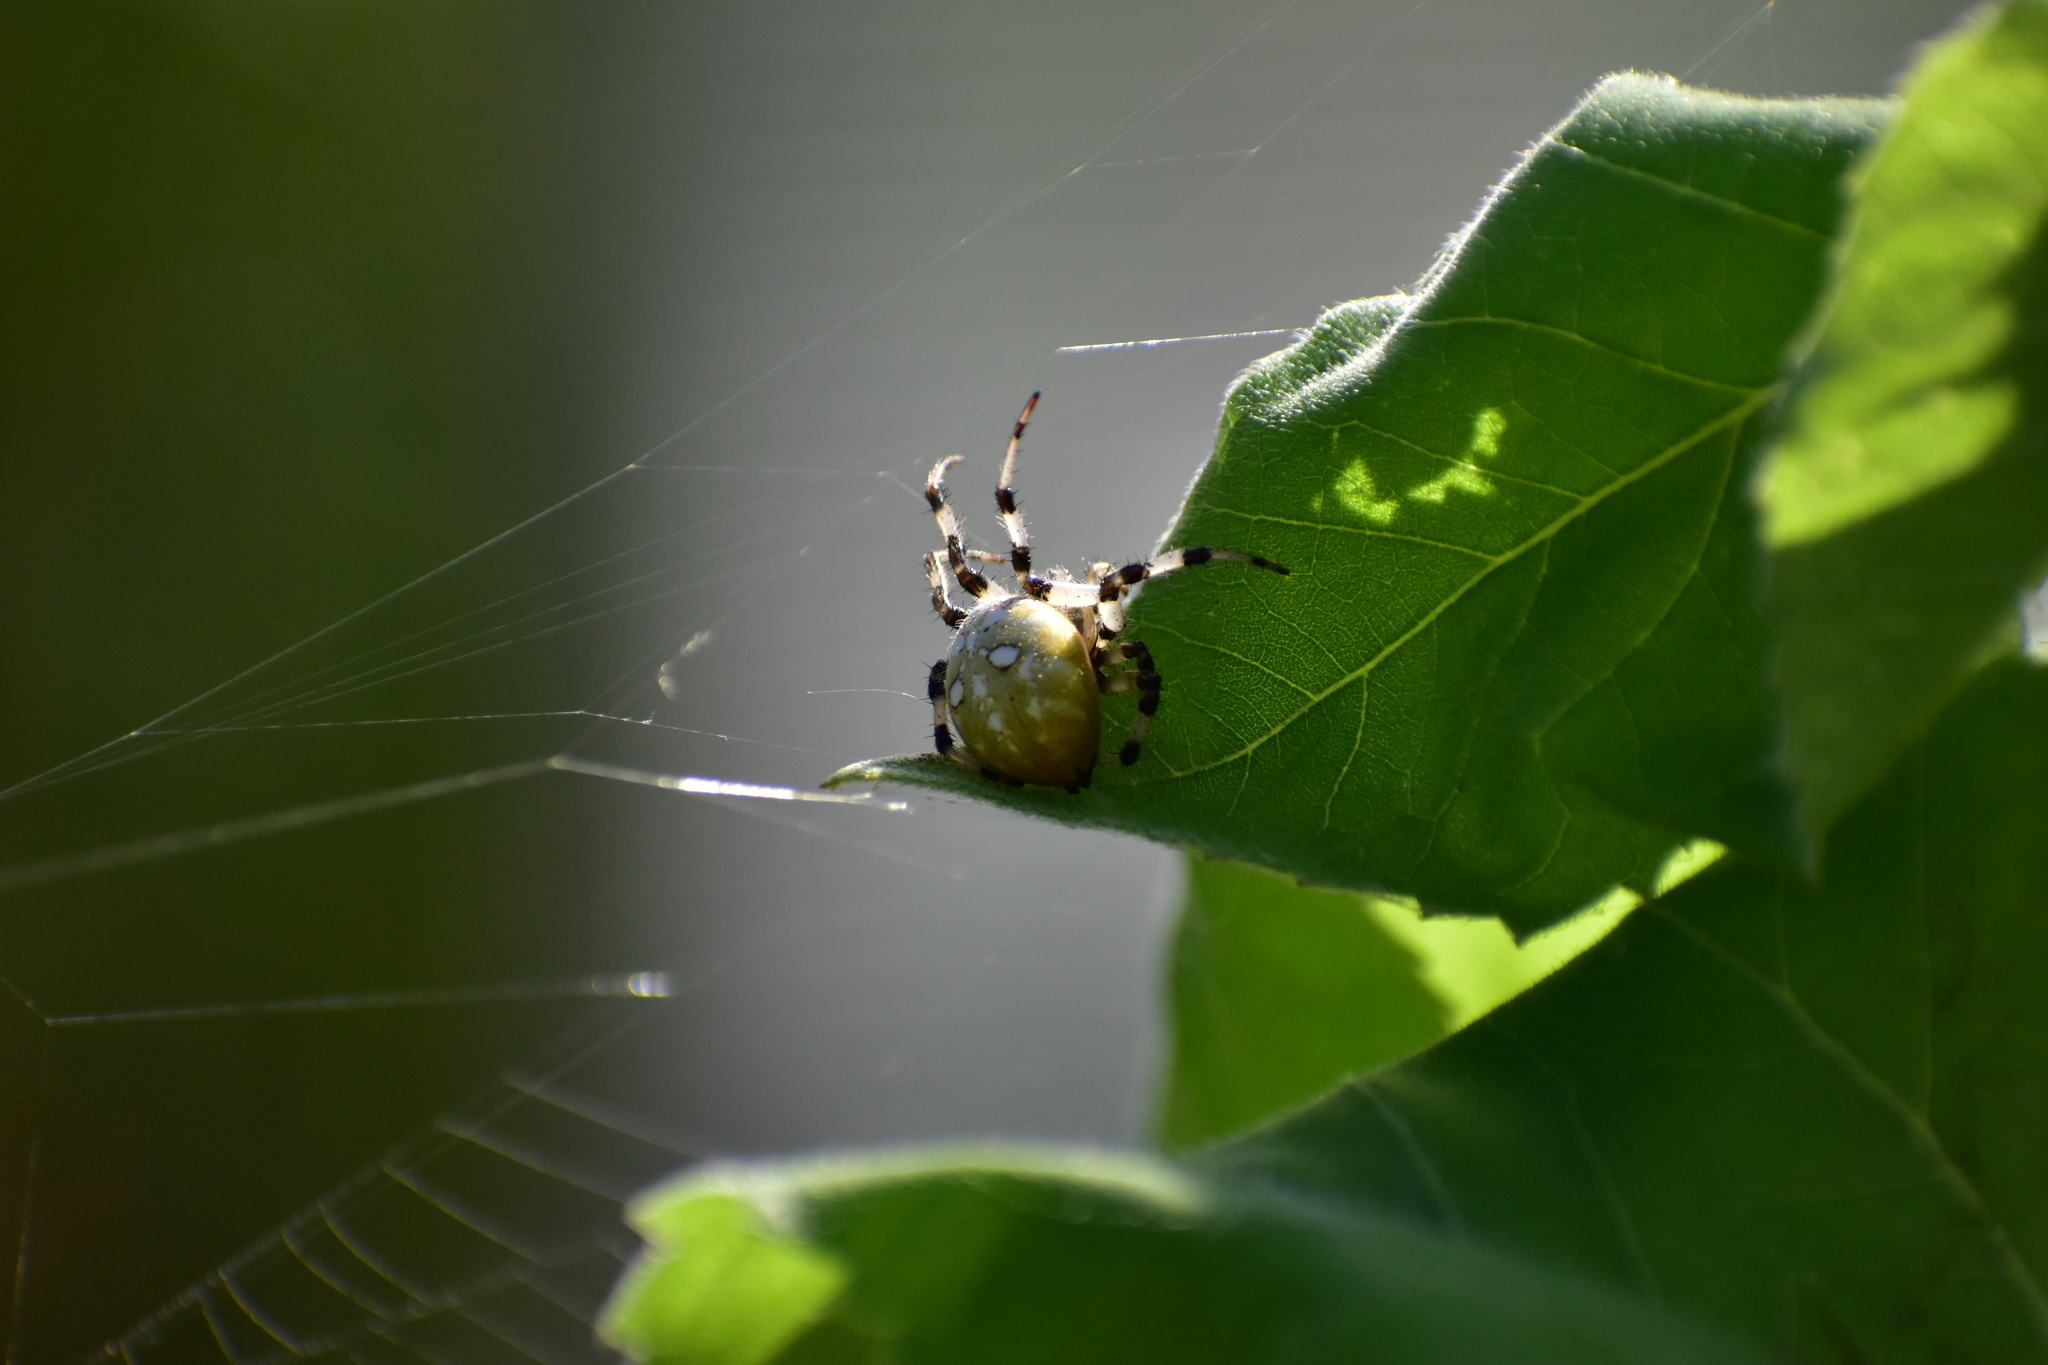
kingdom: Animalia
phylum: Arthropoda
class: Arachnida
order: Araneae
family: Araneidae
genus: Araneus
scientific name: Araneus quadratus
